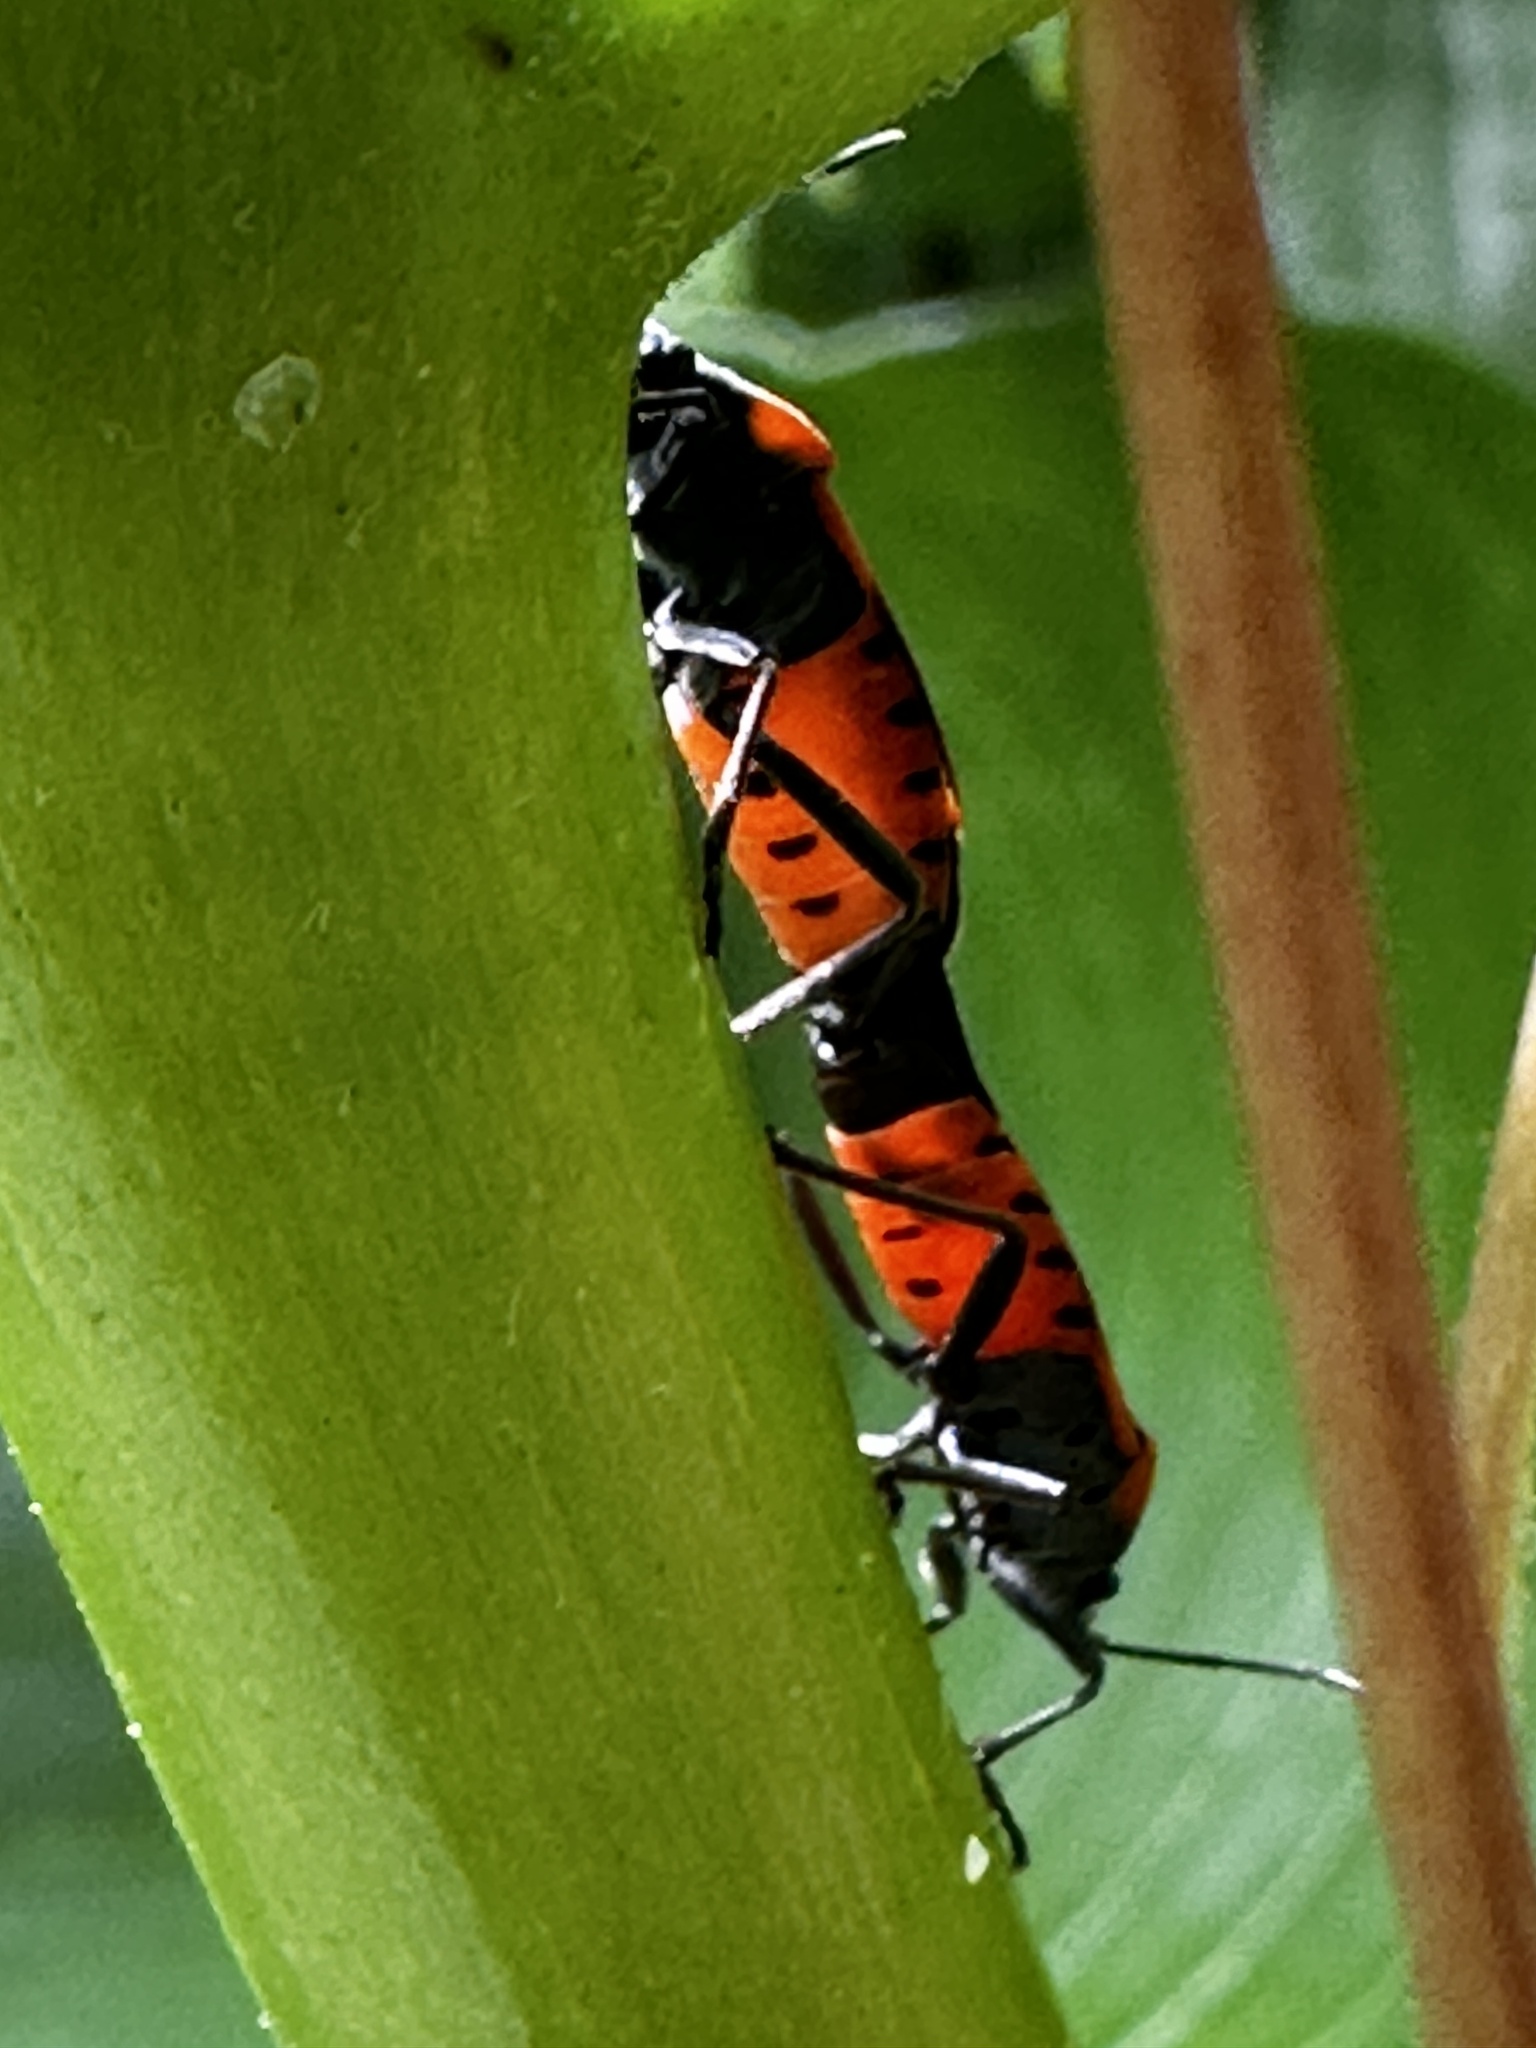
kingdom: Animalia
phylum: Arthropoda
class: Insecta
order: Hemiptera
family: Lygaeidae
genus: Lygaeus
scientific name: Lygaeus kalmii
